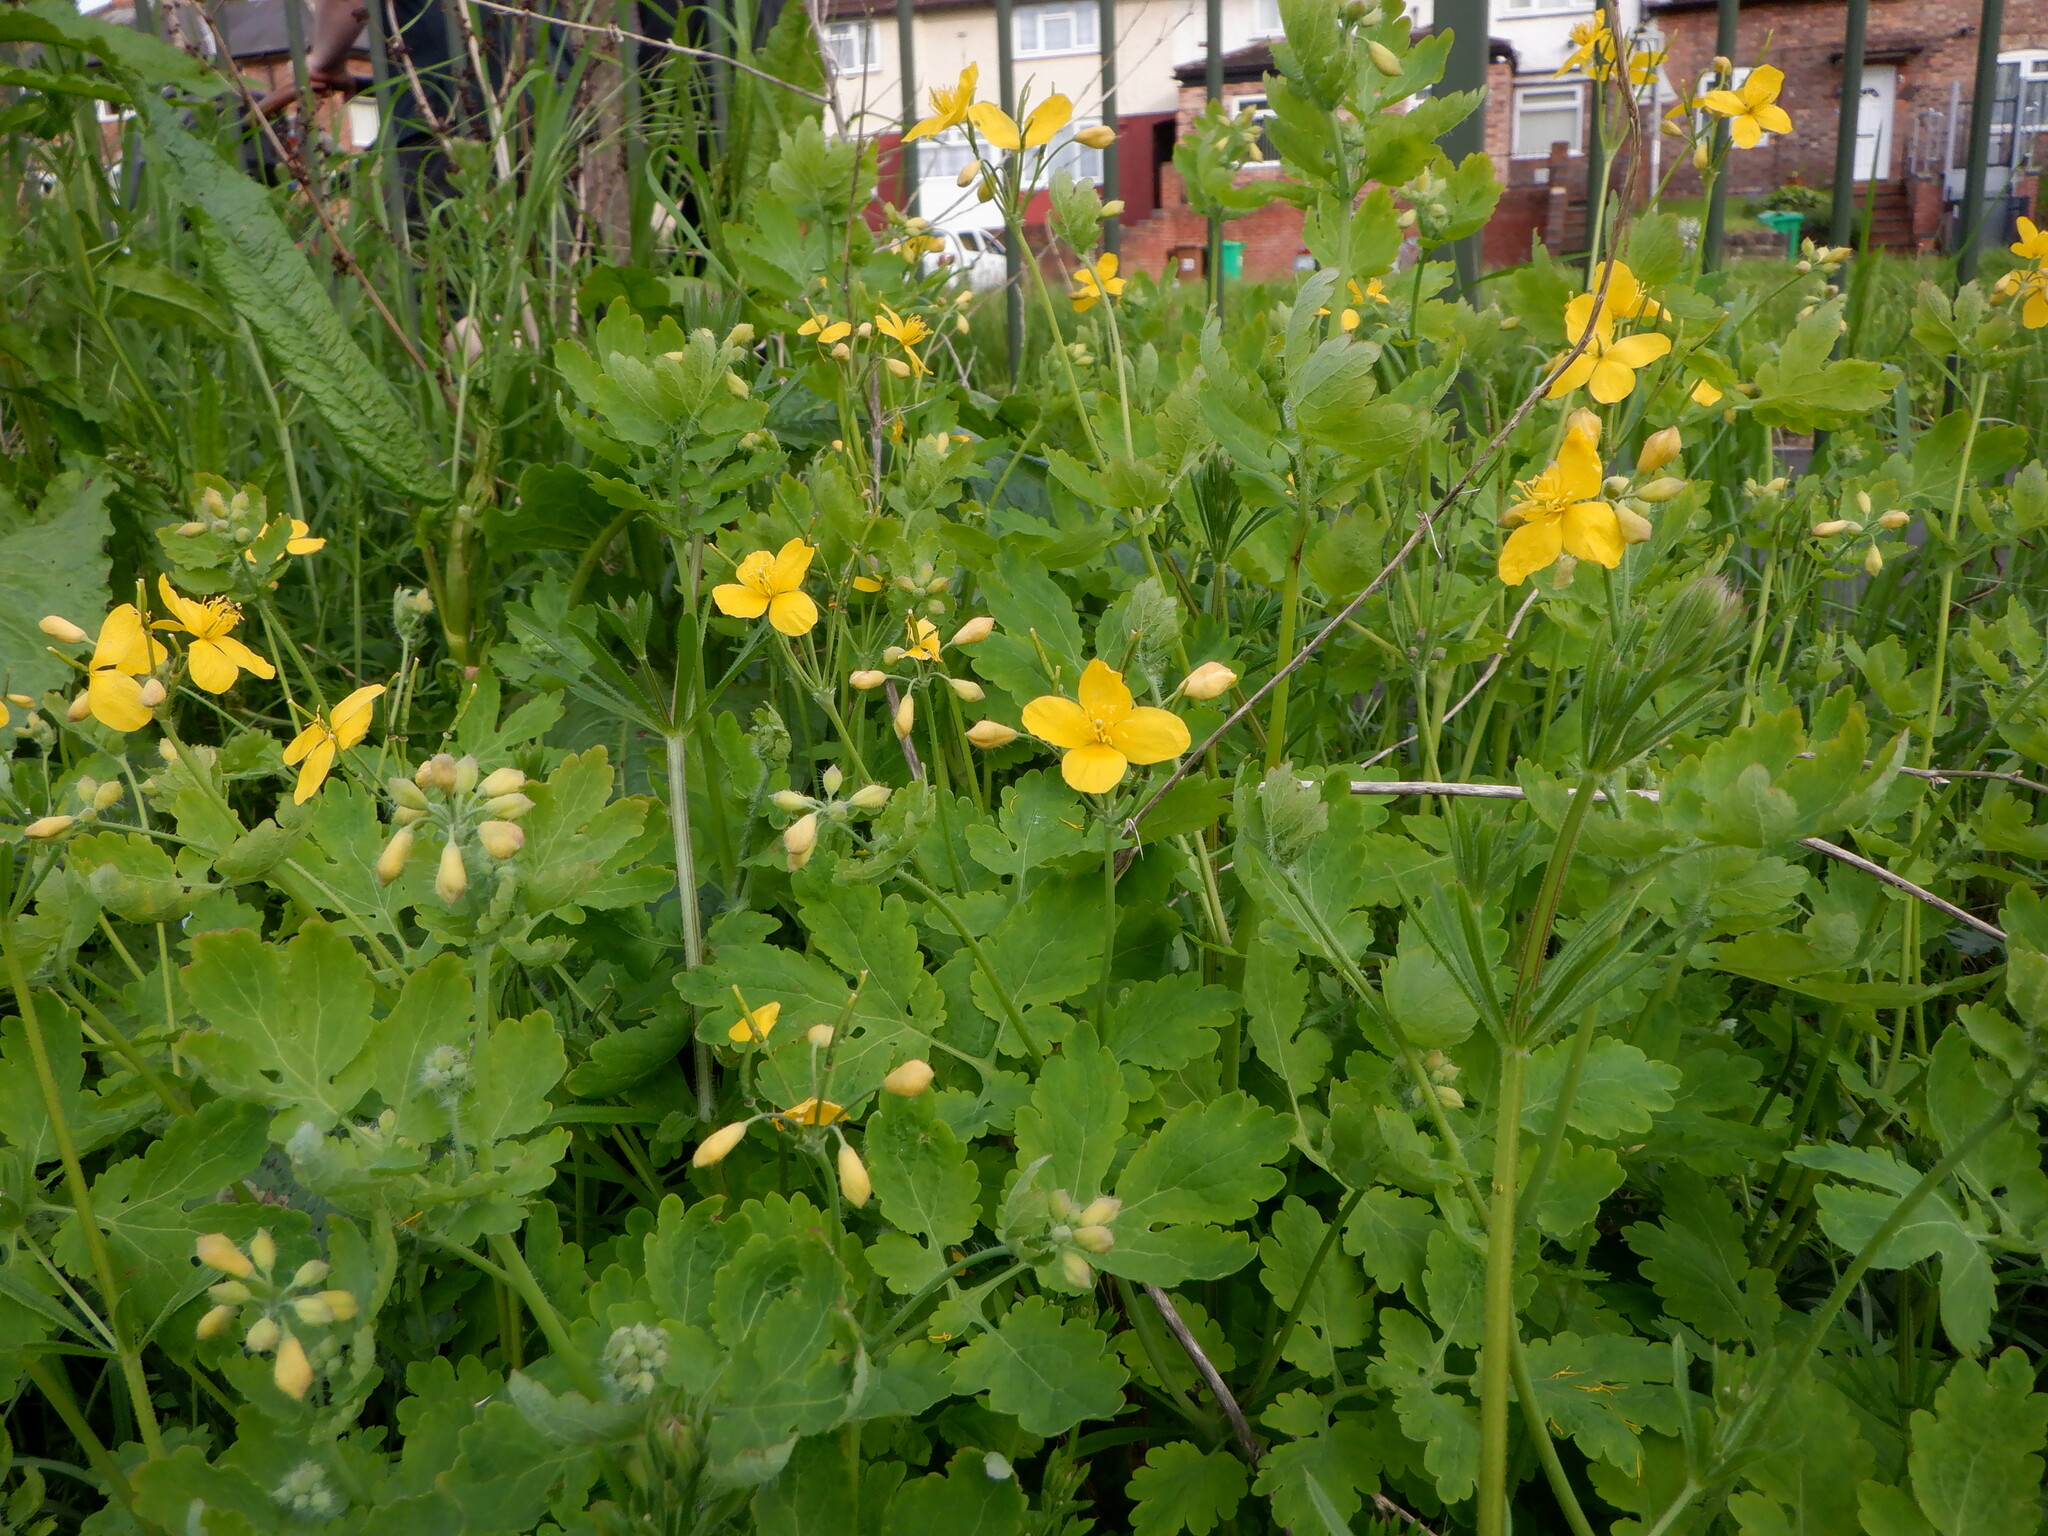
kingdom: Plantae
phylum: Tracheophyta
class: Magnoliopsida
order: Ranunculales
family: Papaveraceae
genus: Chelidonium
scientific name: Chelidonium majus
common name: Greater celandine
